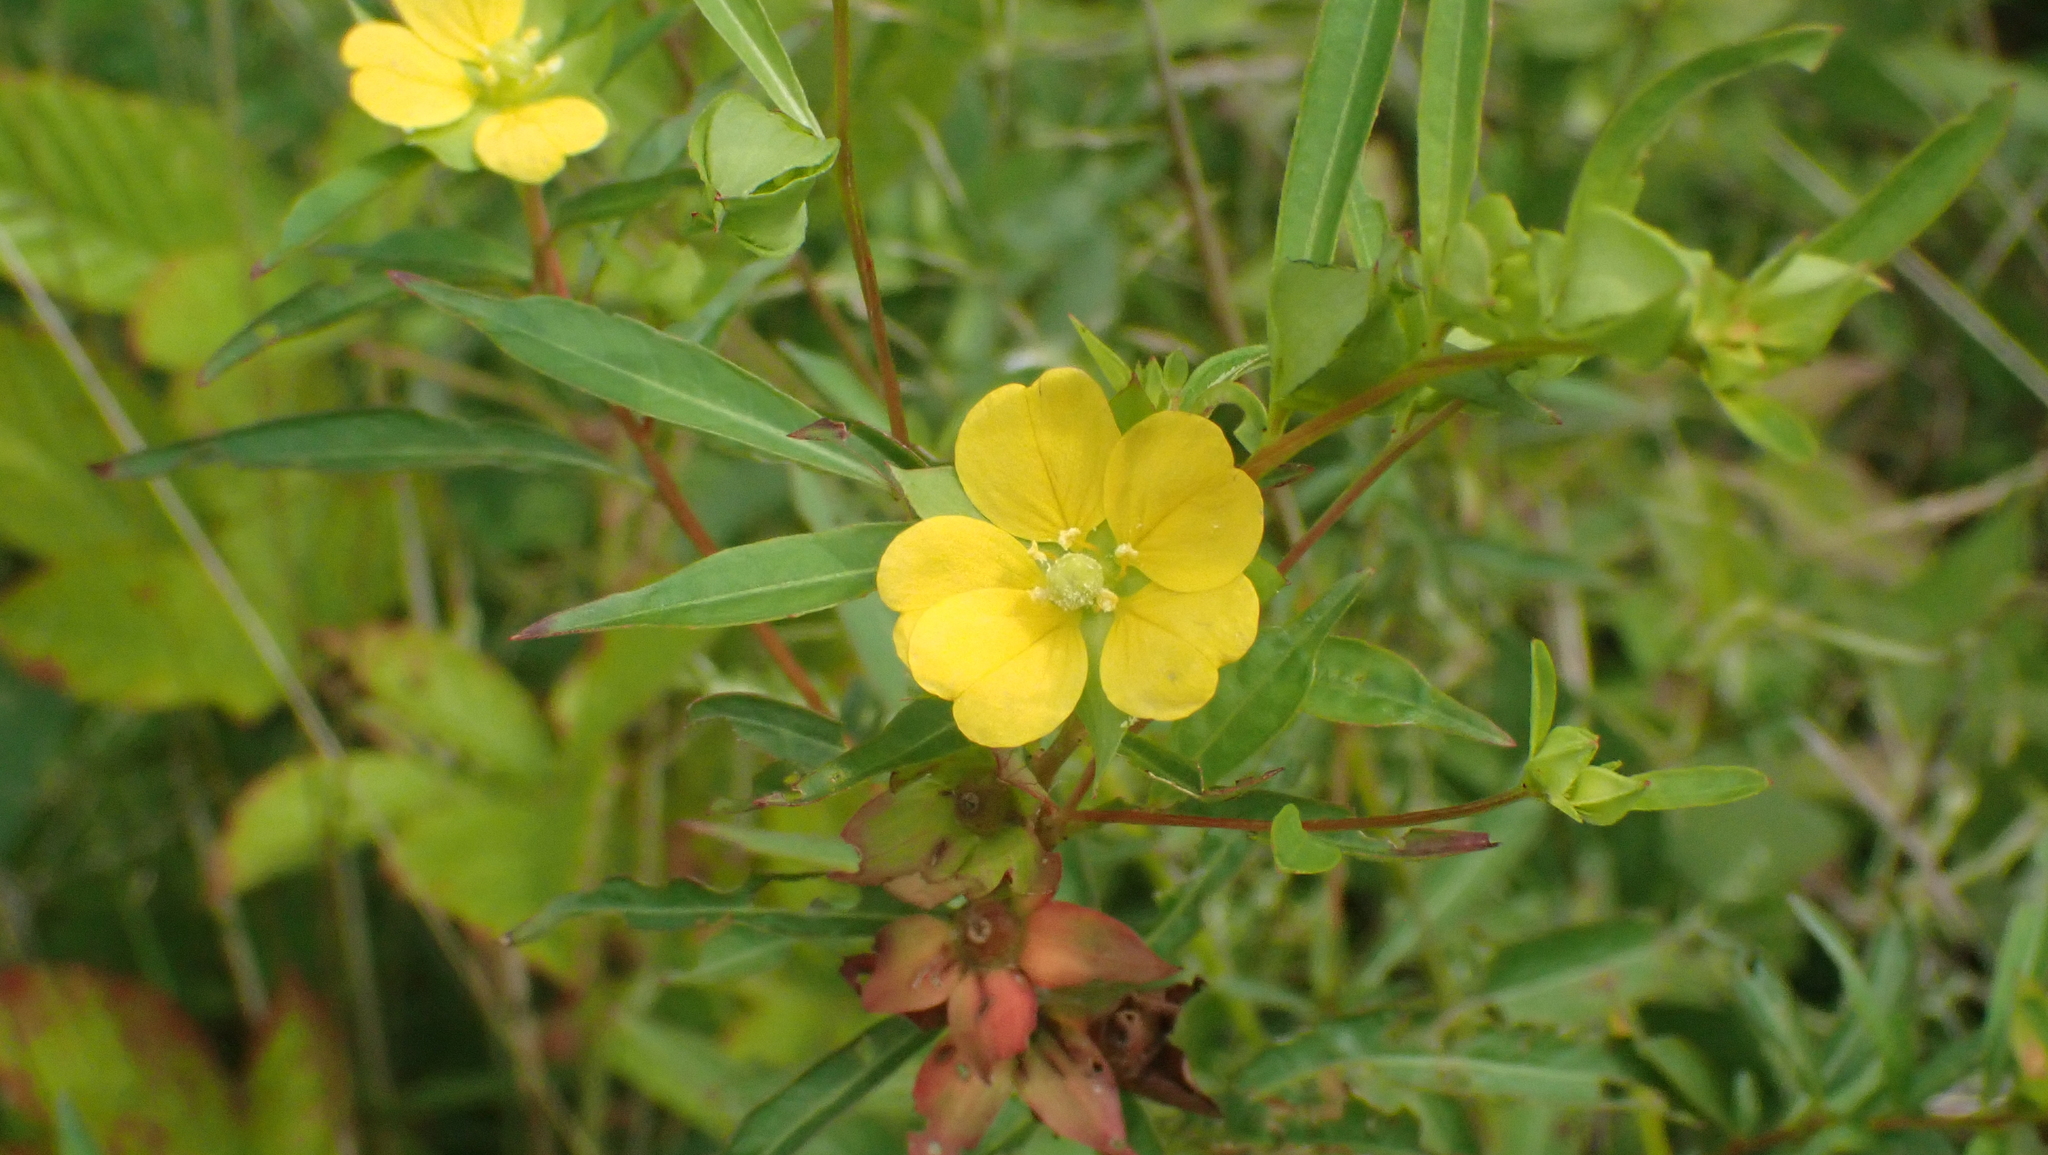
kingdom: Plantae
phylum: Tracheophyta
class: Magnoliopsida
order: Myrtales
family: Onagraceae
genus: Ludwigia
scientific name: Ludwigia alternifolia
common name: Rattlebox
